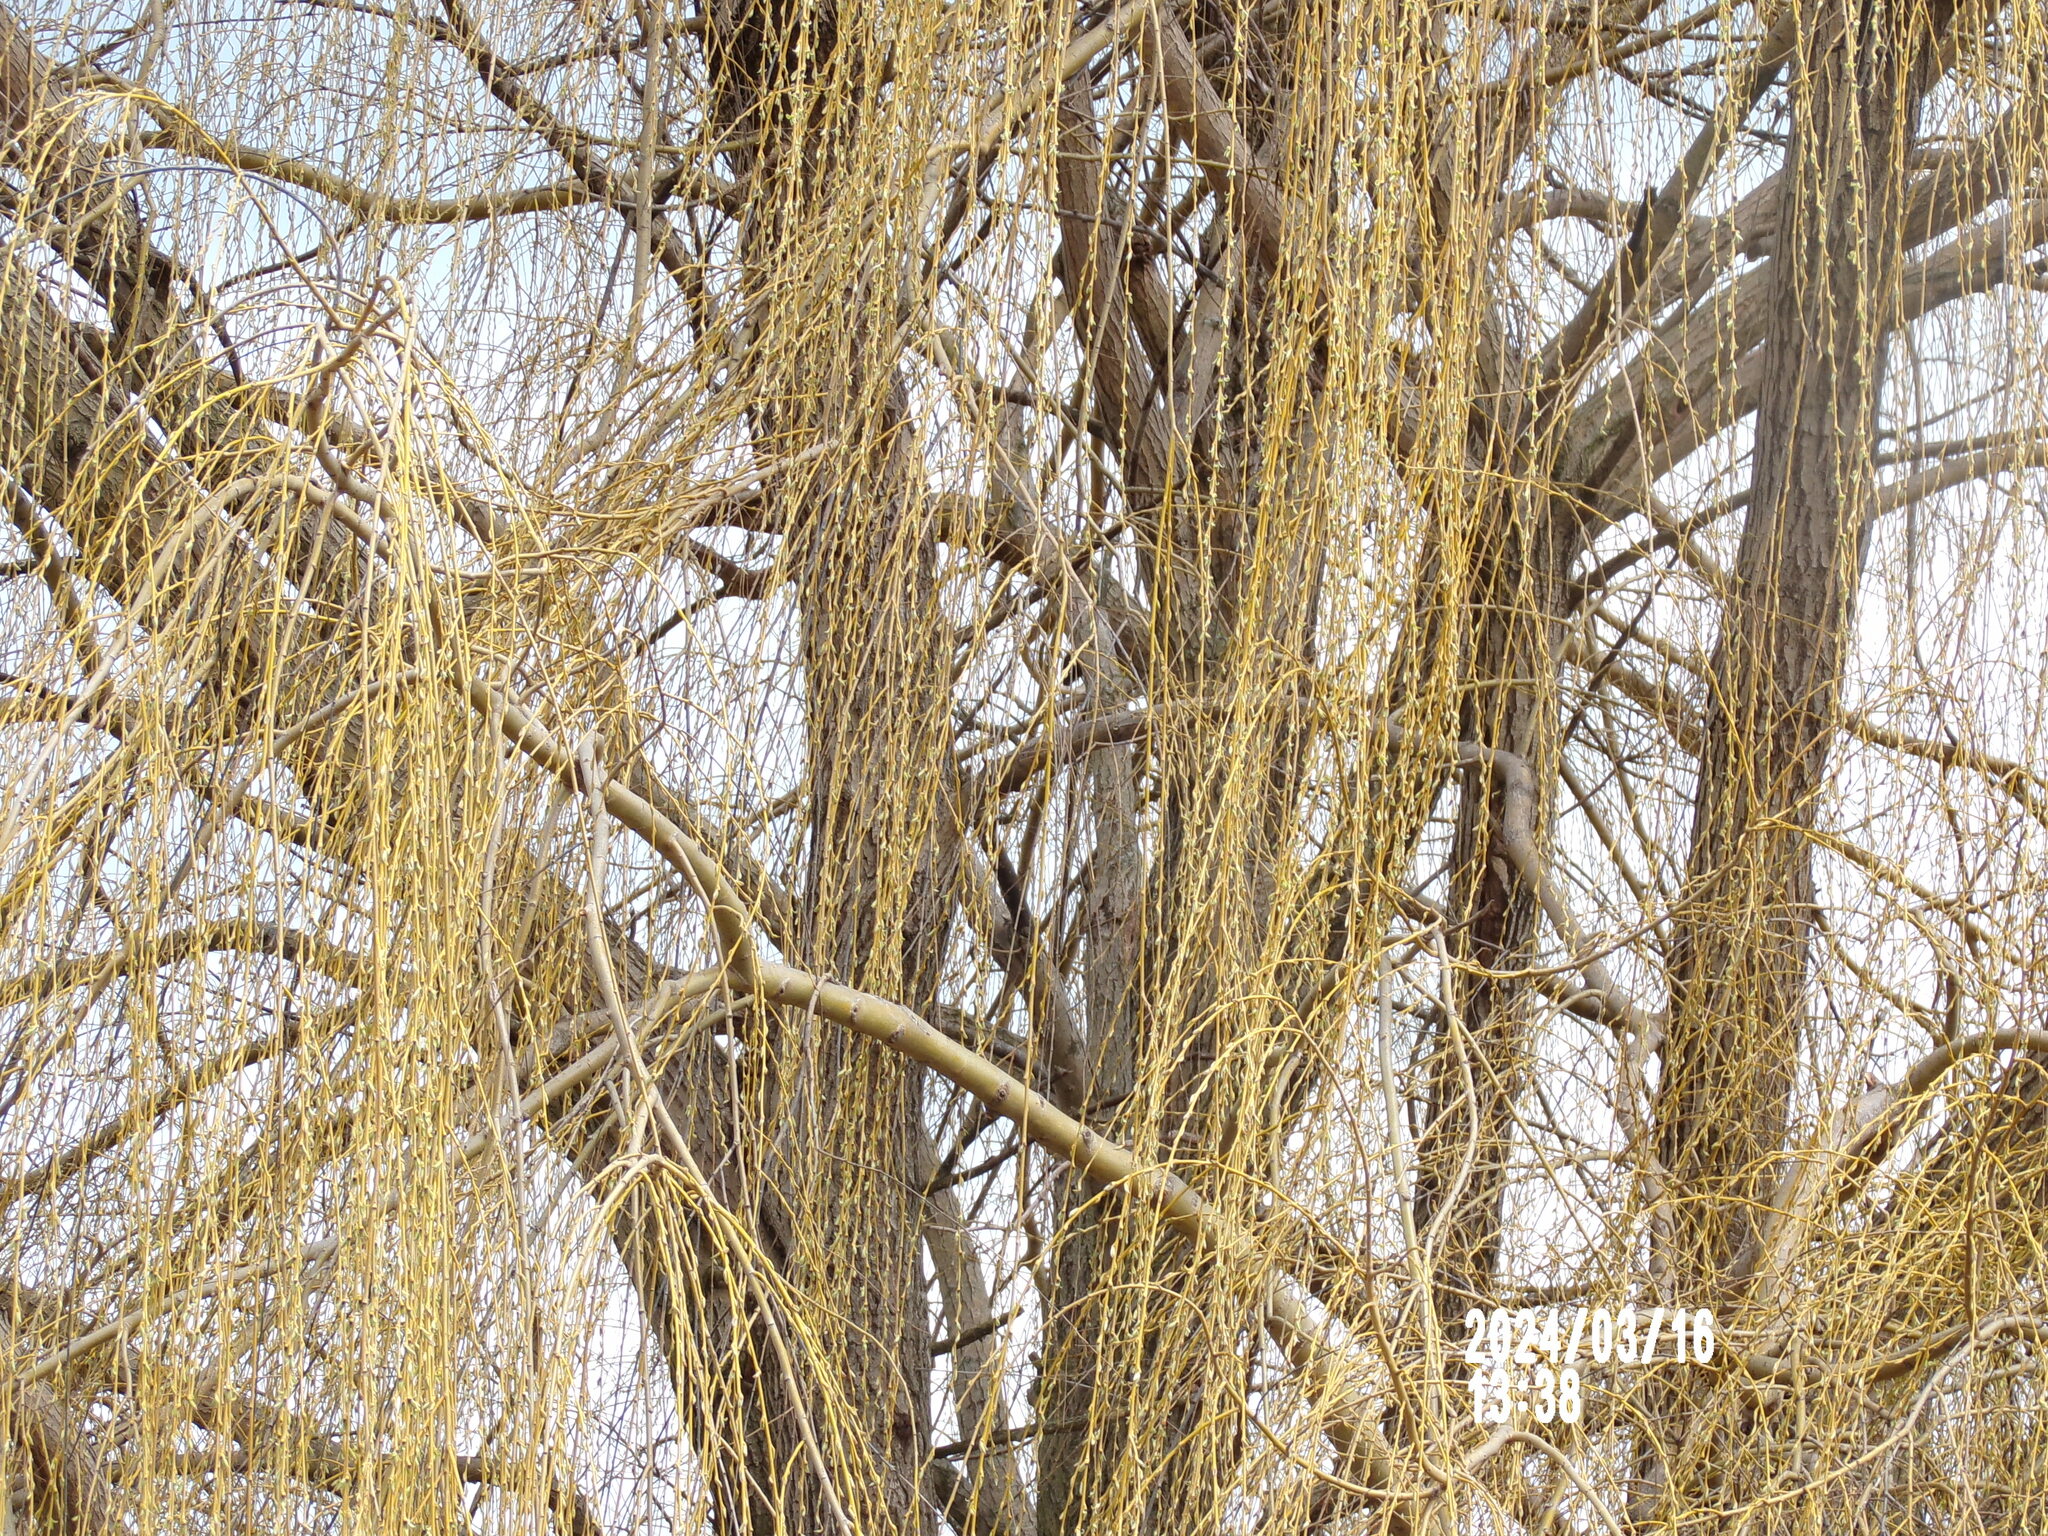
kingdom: Plantae
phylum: Tracheophyta
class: Magnoliopsida
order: Malpighiales
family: Salicaceae
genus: Salix
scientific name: Salix babylonica
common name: Weeping willow
